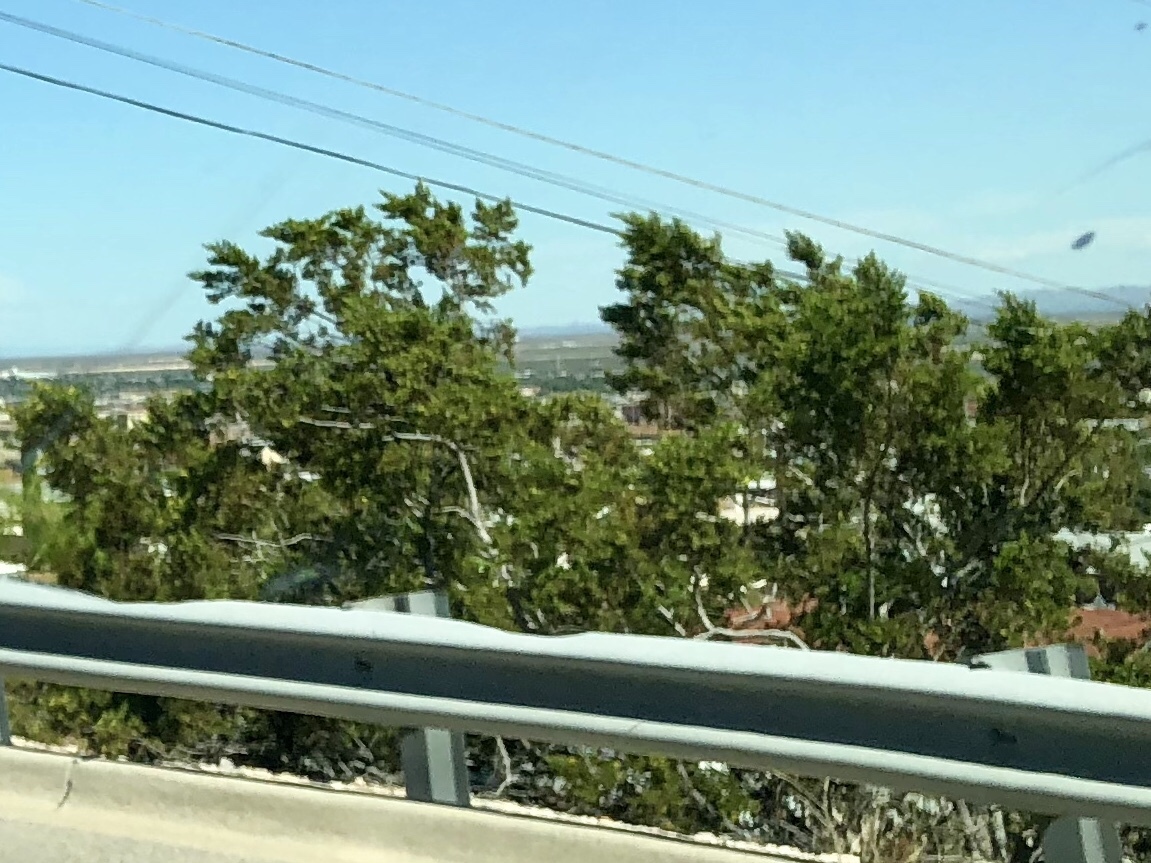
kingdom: Plantae
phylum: Tracheophyta
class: Magnoliopsida
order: Zygophyllales
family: Zygophyllaceae
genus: Larrea
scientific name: Larrea tridentata
